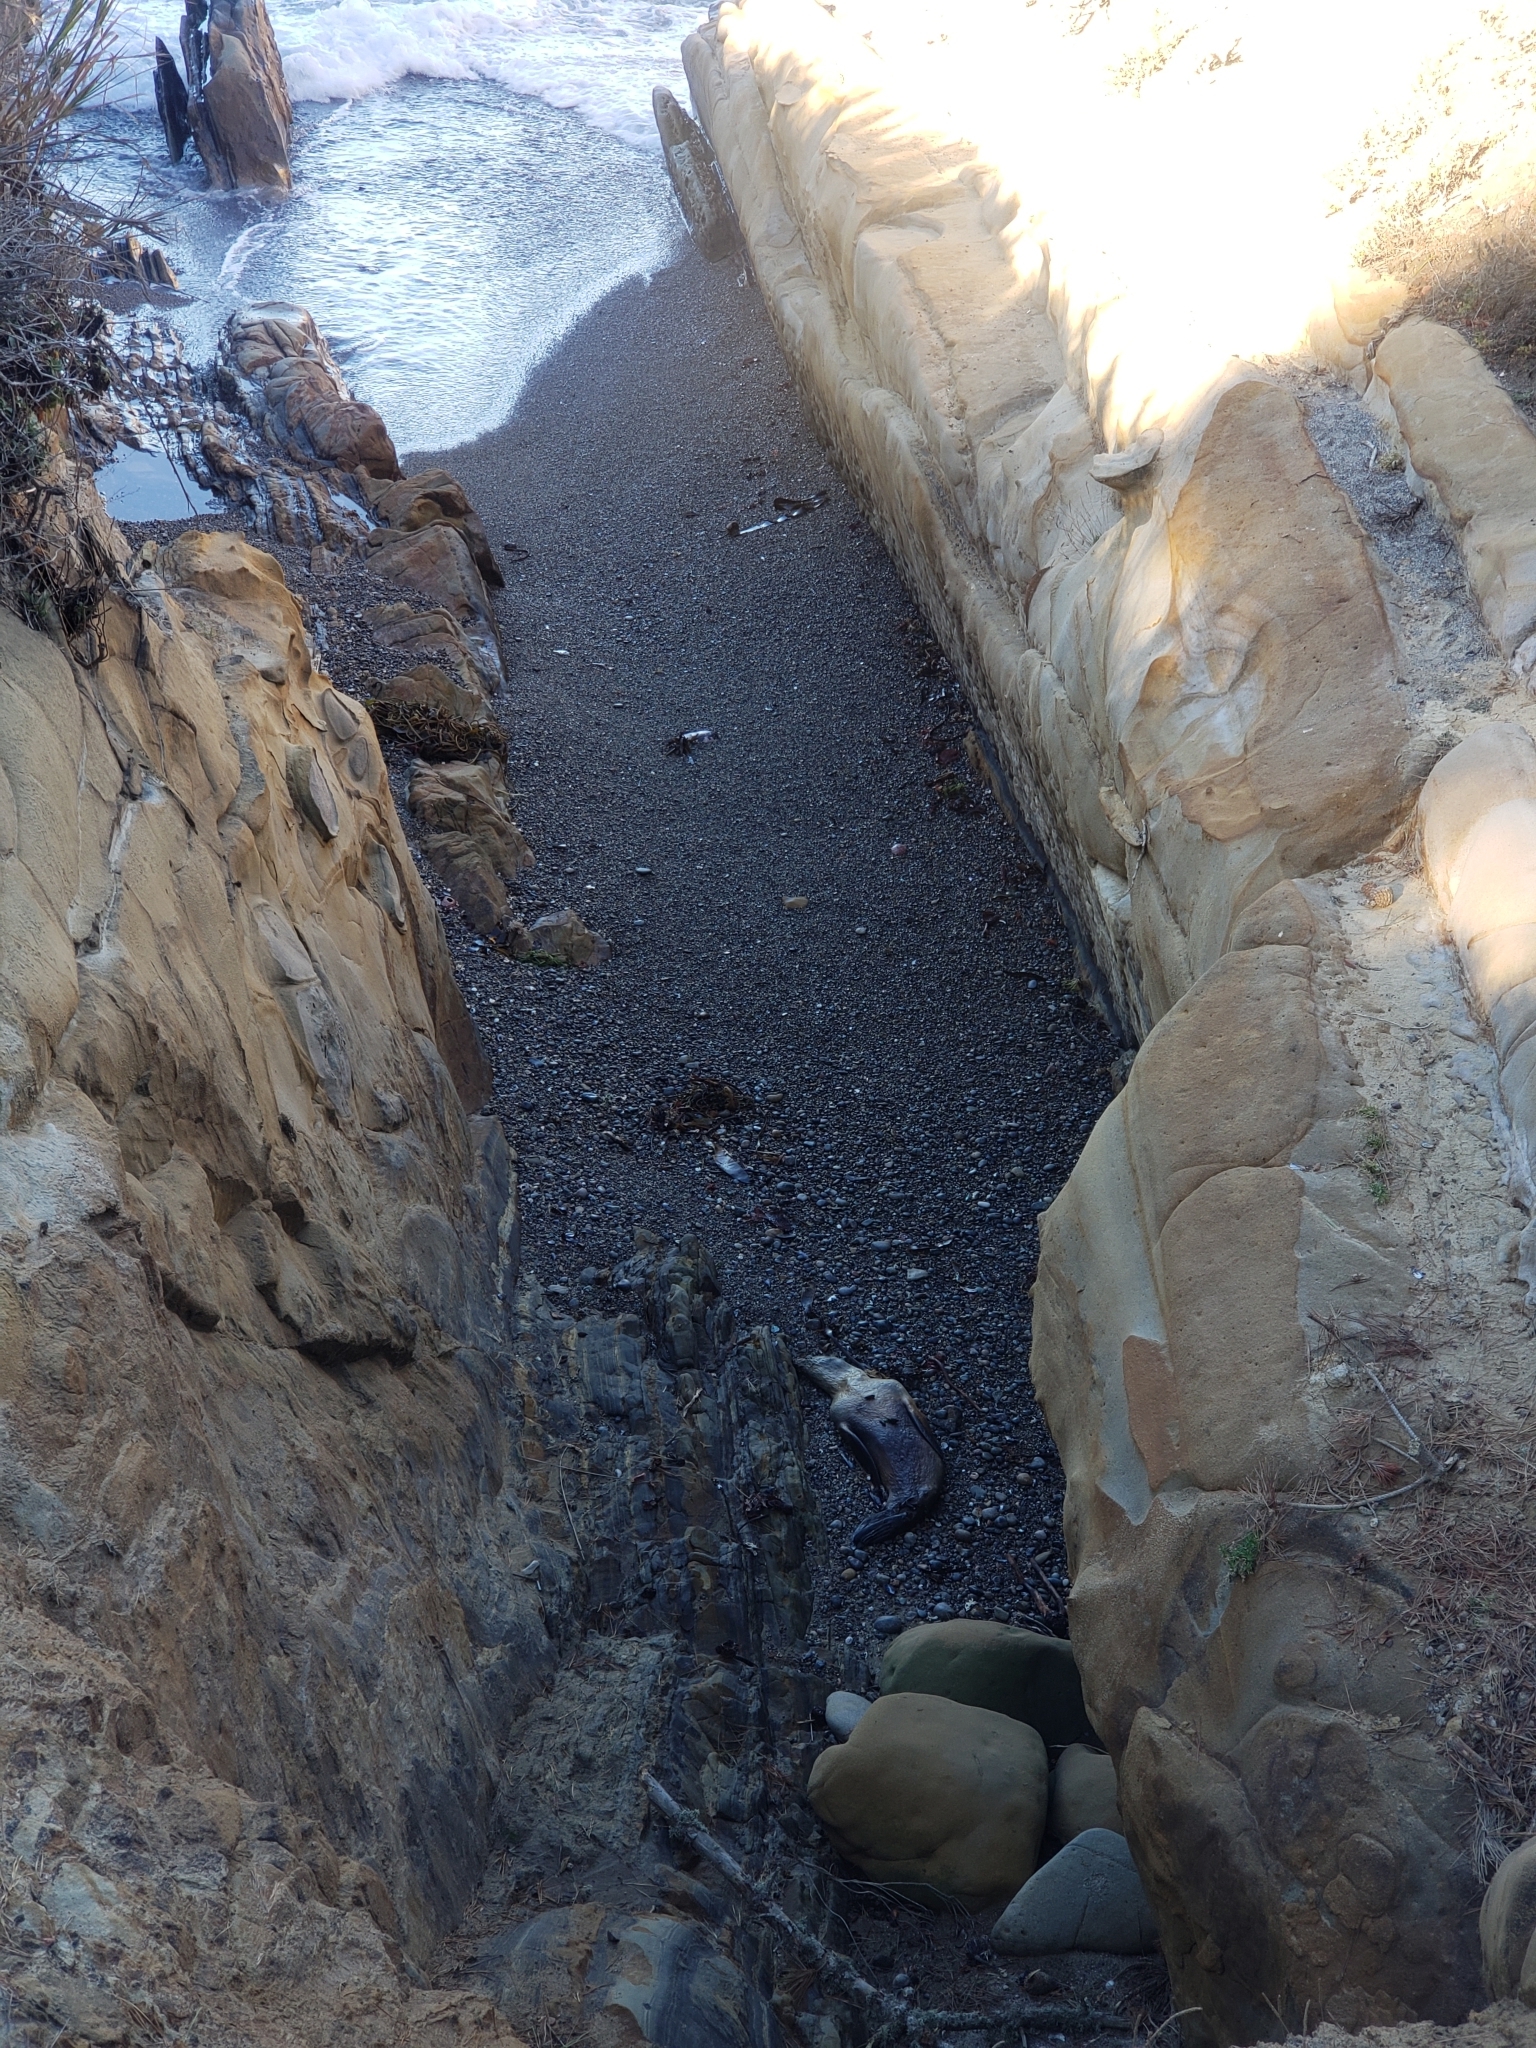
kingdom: Animalia
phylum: Chordata
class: Mammalia
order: Carnivora
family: Otariidae
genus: Zalophus
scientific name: Zalophus californianus
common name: California sea lion
